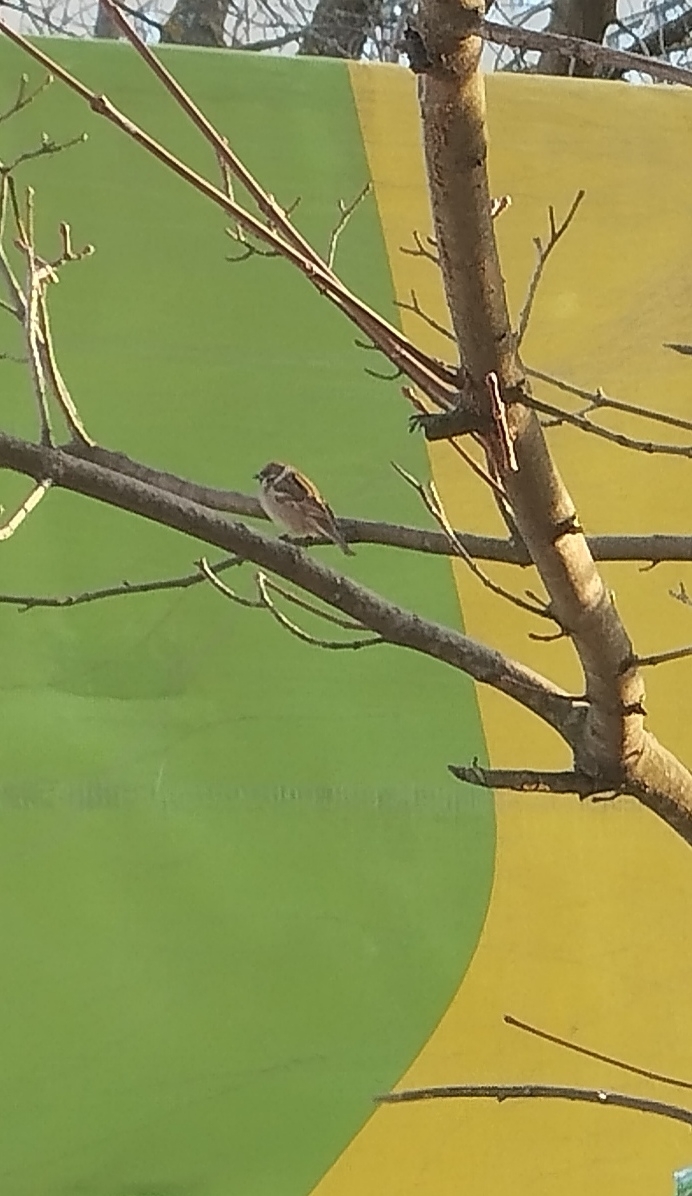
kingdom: Animalia
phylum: Chordata
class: Aves
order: Passeriformes
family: Passeridae
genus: Passer
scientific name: Passer montanus
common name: Eurasian tree sparrow
